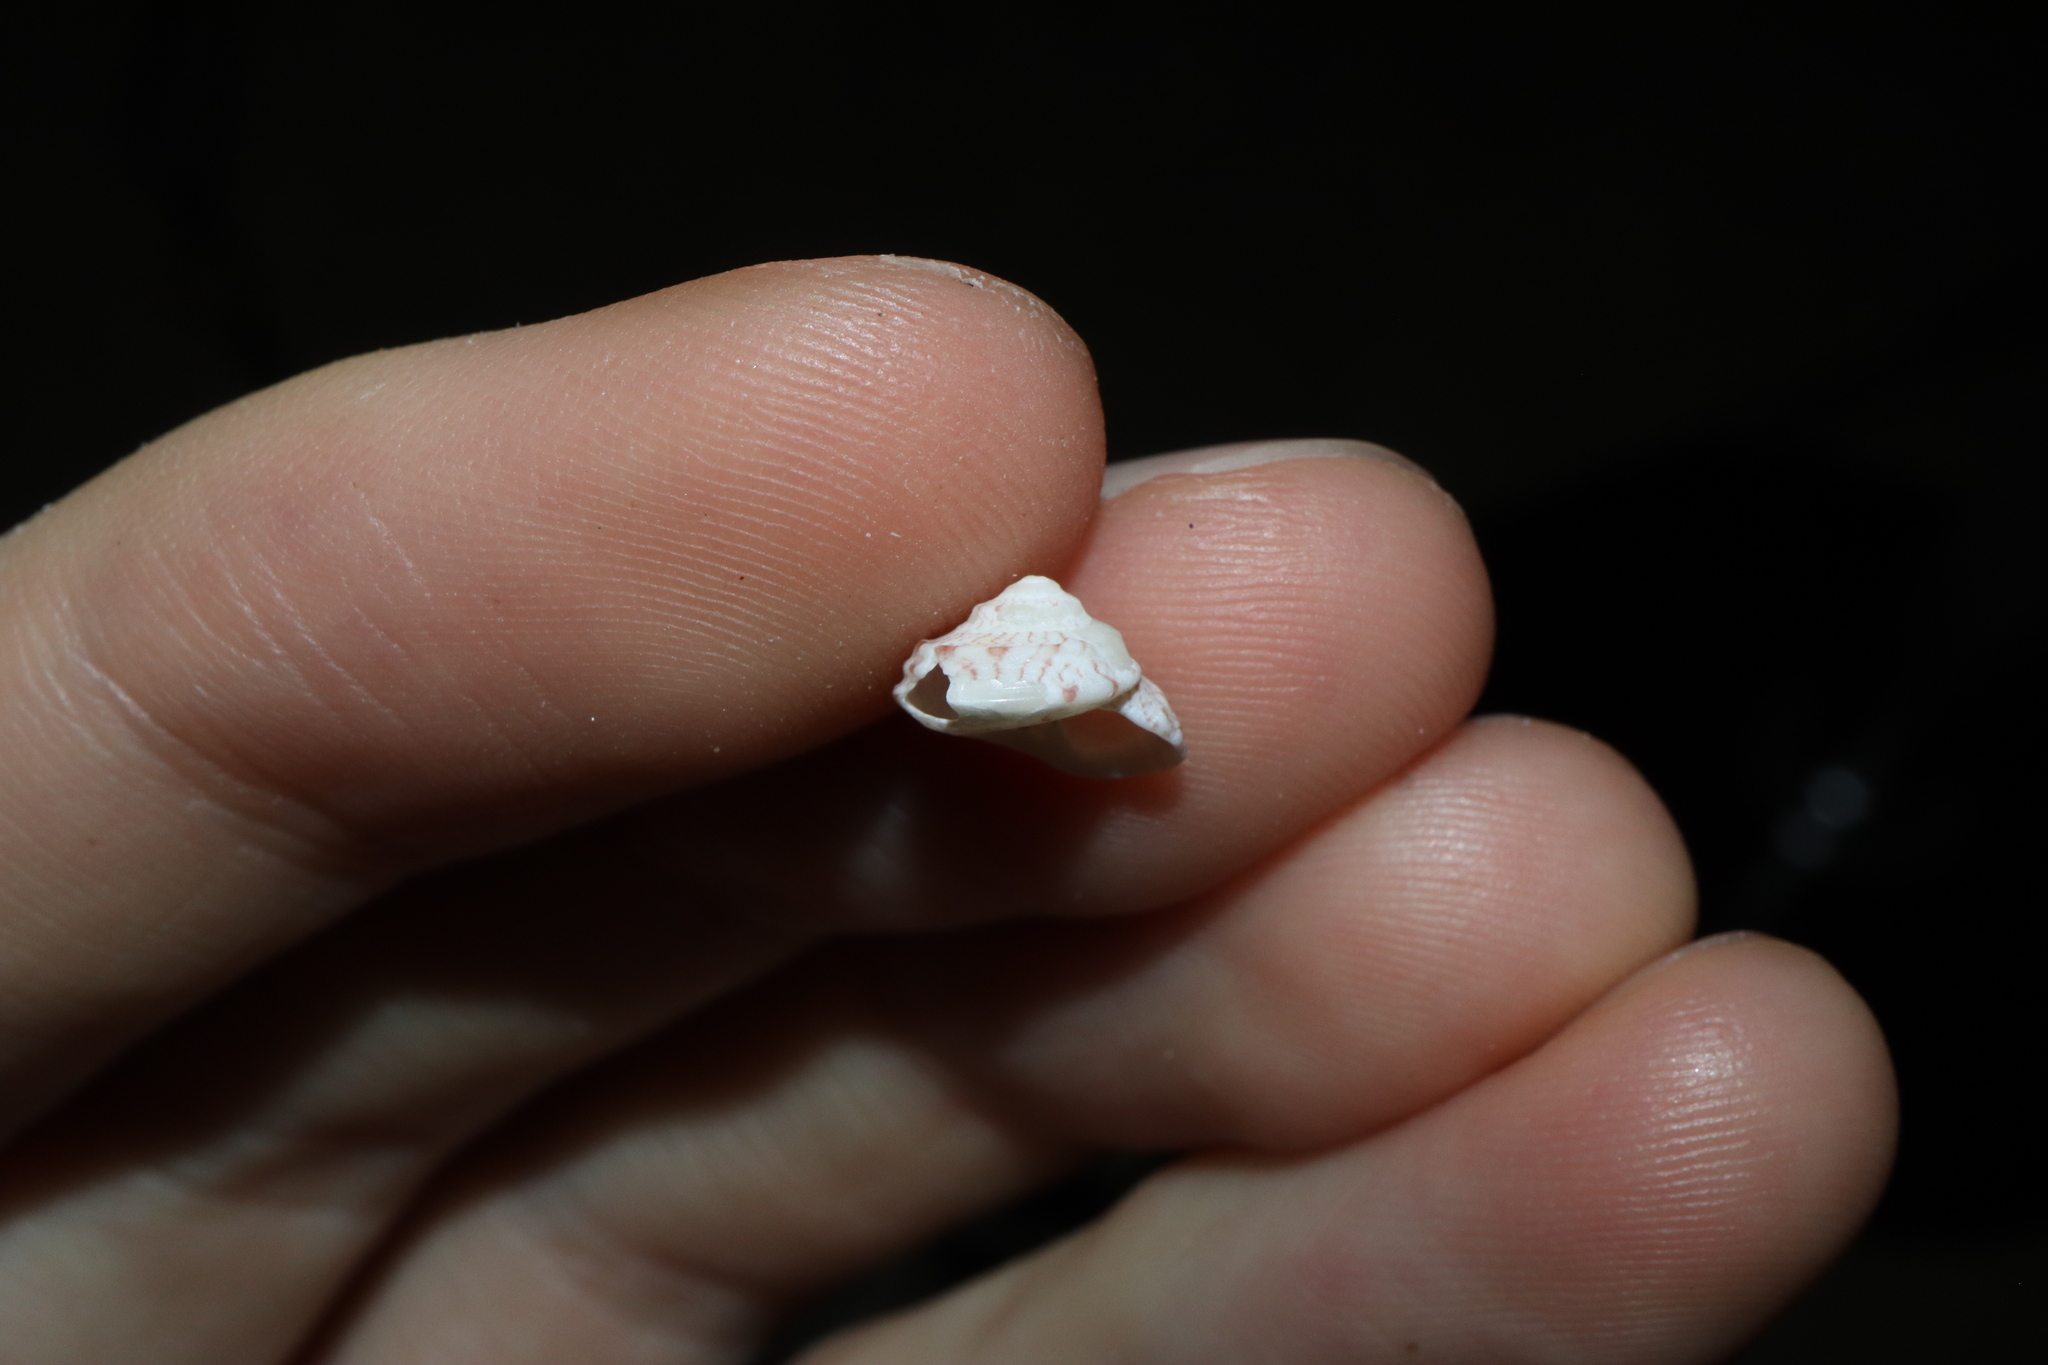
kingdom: Animalia
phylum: Mollusca
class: Gastropoda
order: Trochida
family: Trochidae
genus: Notogibbula
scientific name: Notogibbula preissiana
